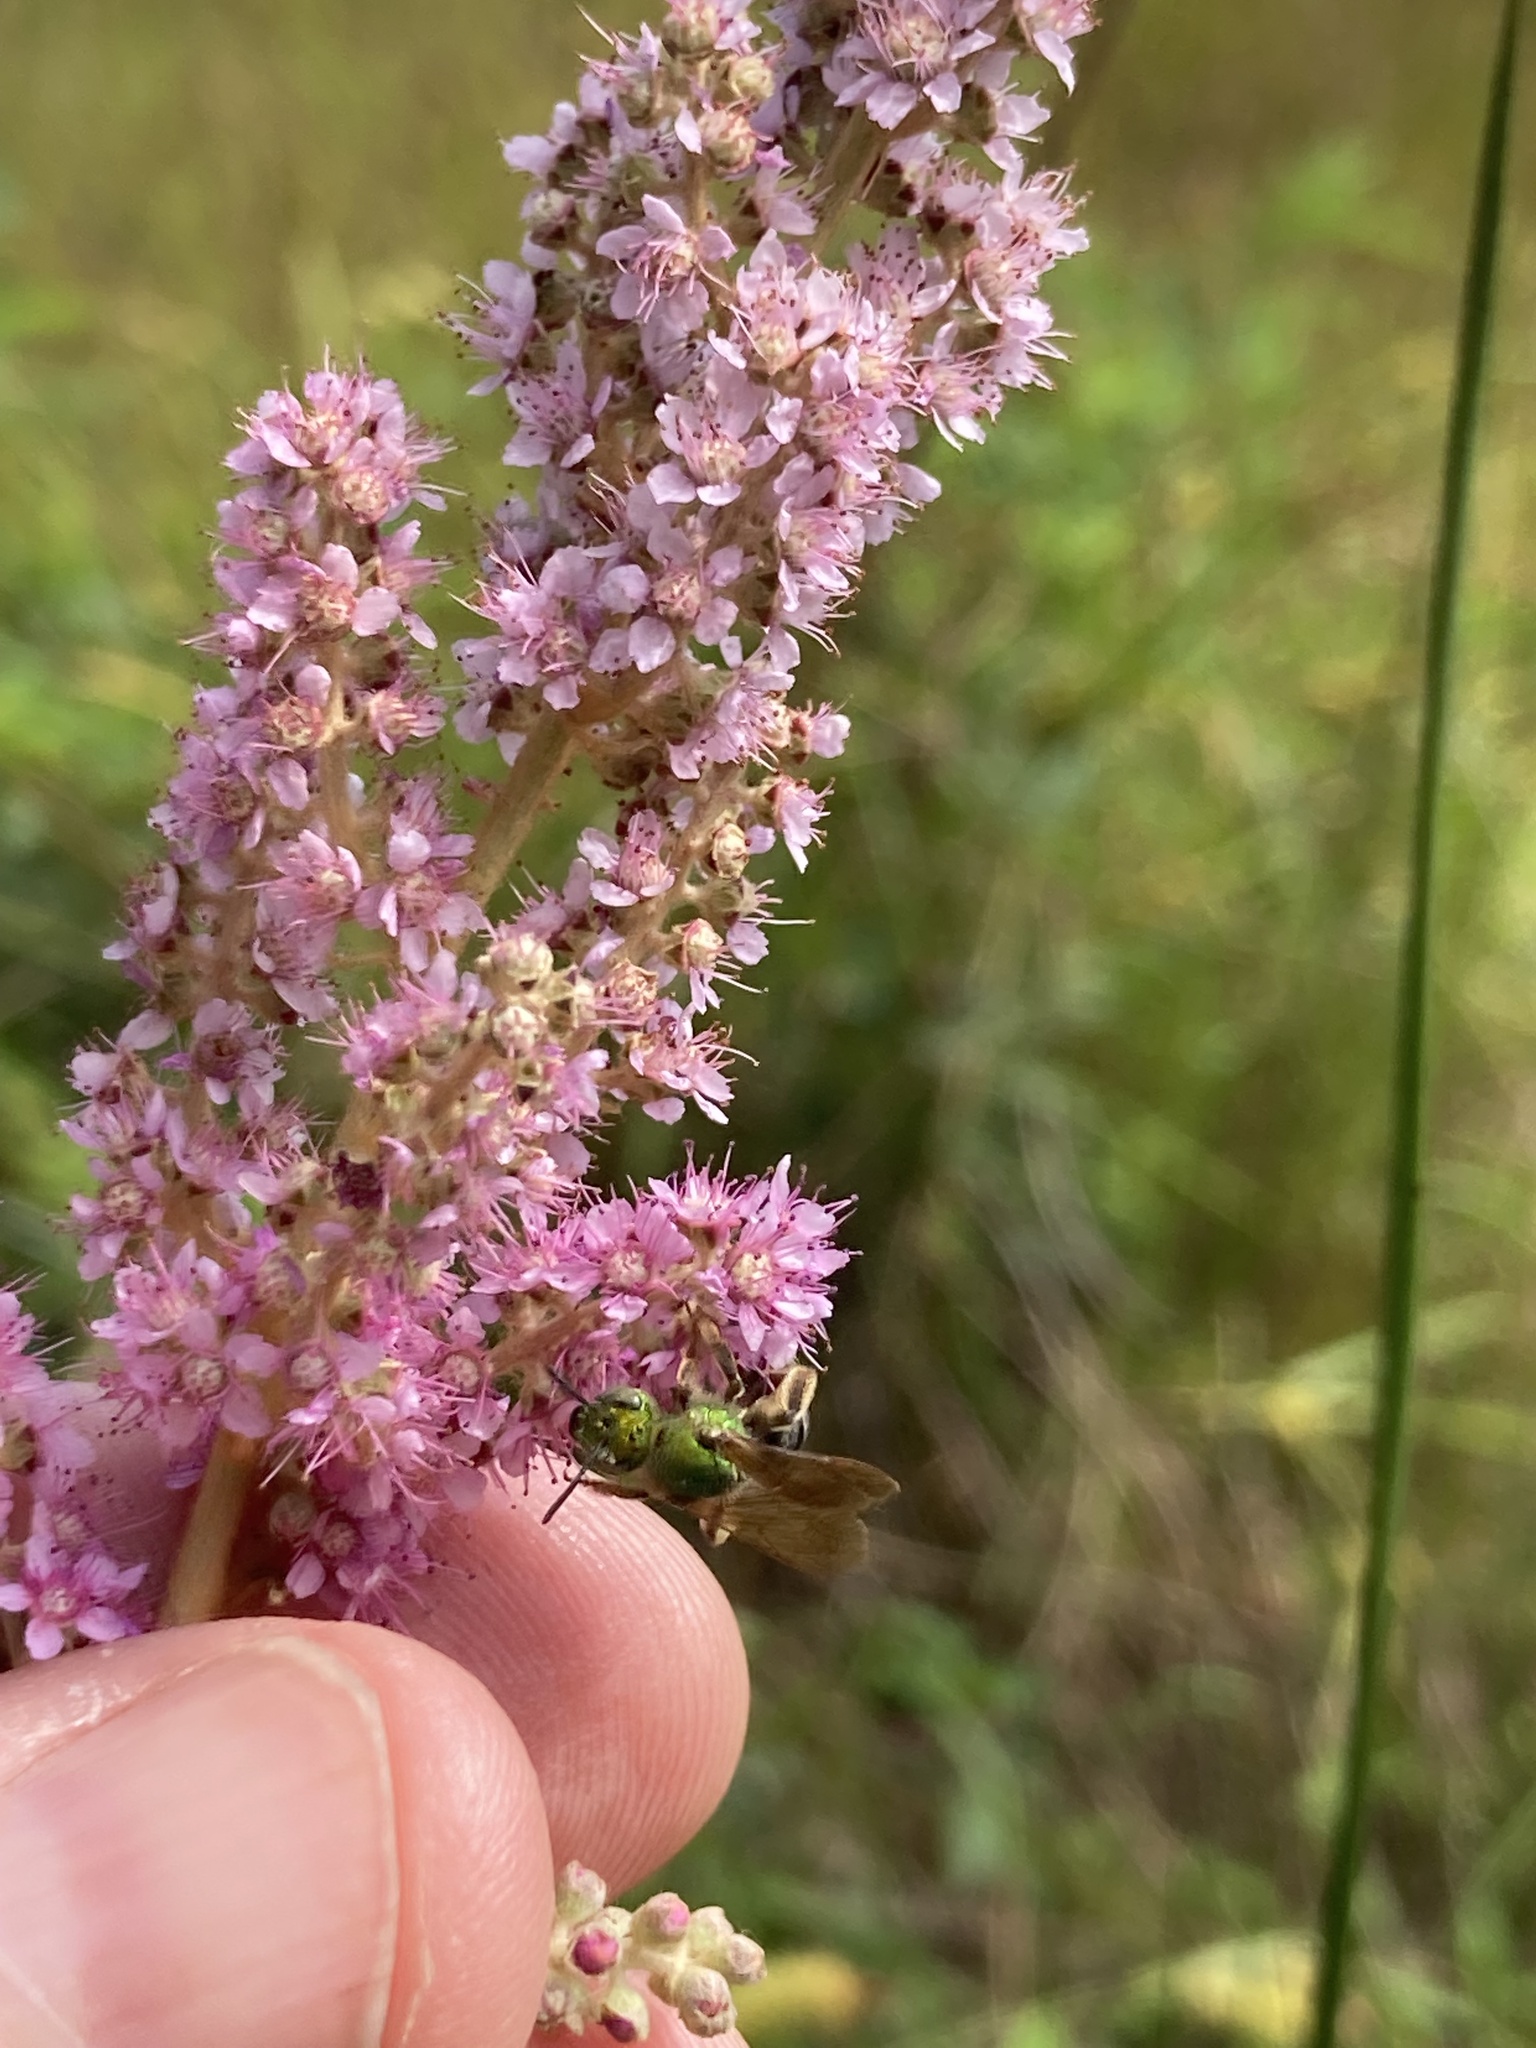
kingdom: Plantae
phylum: Tracheophyta
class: Magnoliopsida
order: Rosales
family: Rosaceae
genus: Spiraea
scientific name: Spiraea tomentosa
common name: Hardhack
